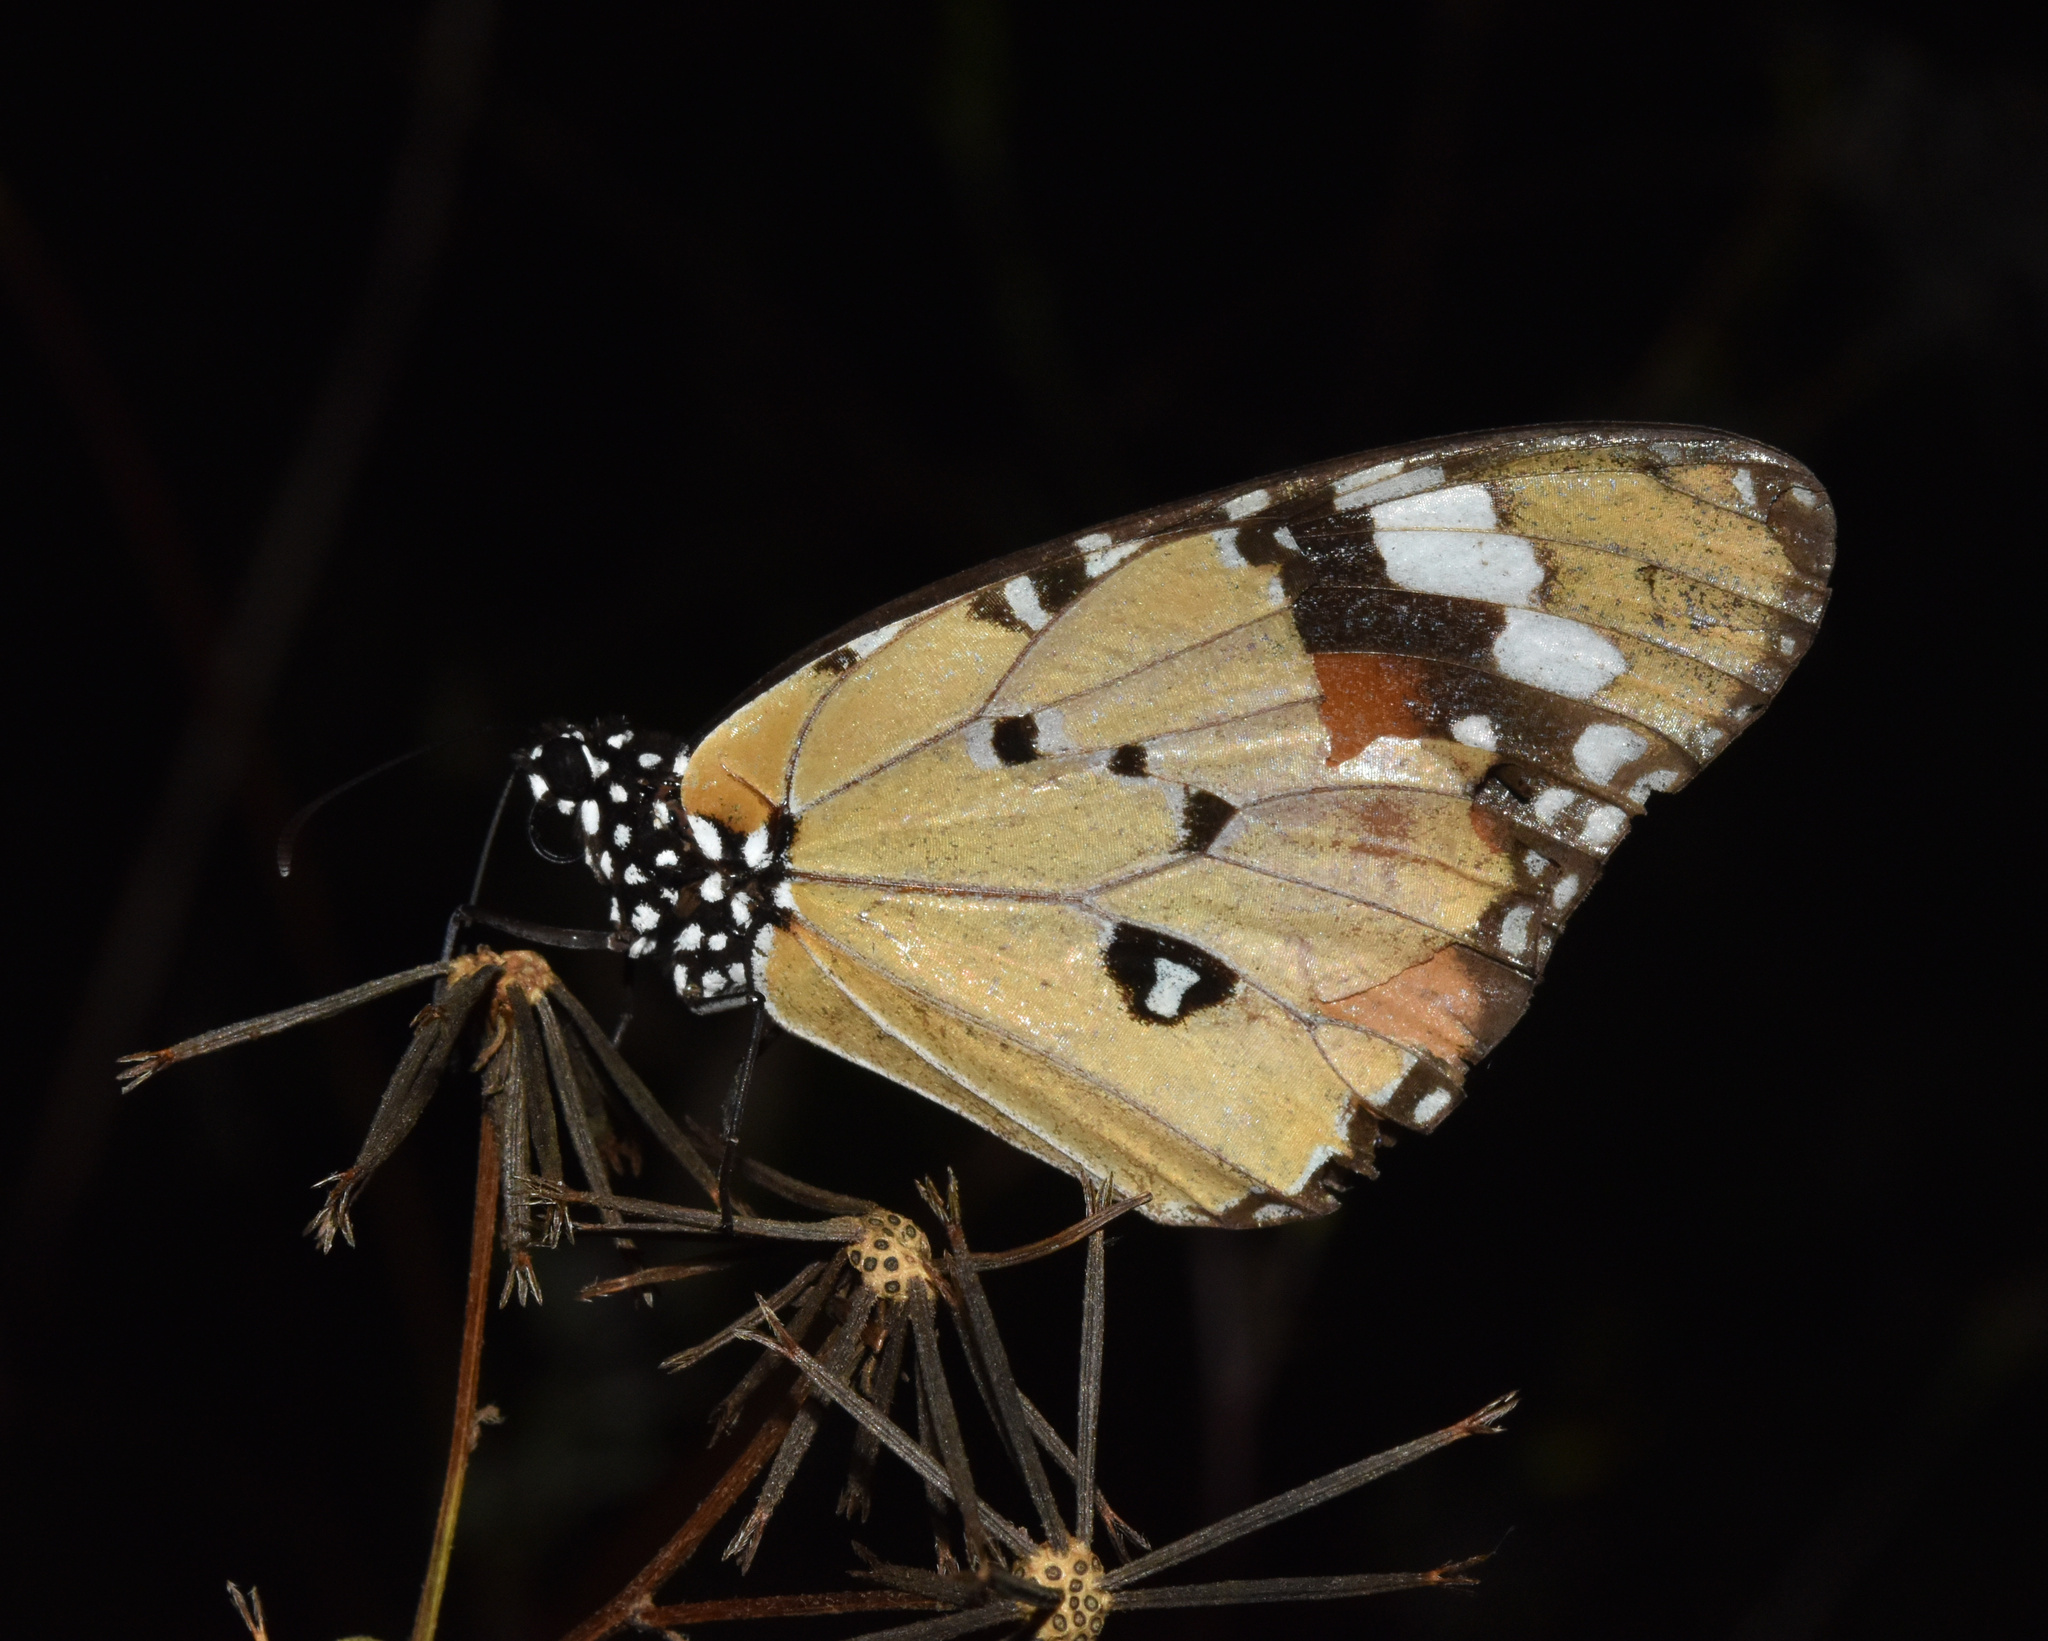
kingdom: Animalia
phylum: Arthropoda
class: Insecta
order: Lepidoptera
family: Nymphalidae
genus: Danaus
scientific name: Danaus chrysippus
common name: Plain tiger
